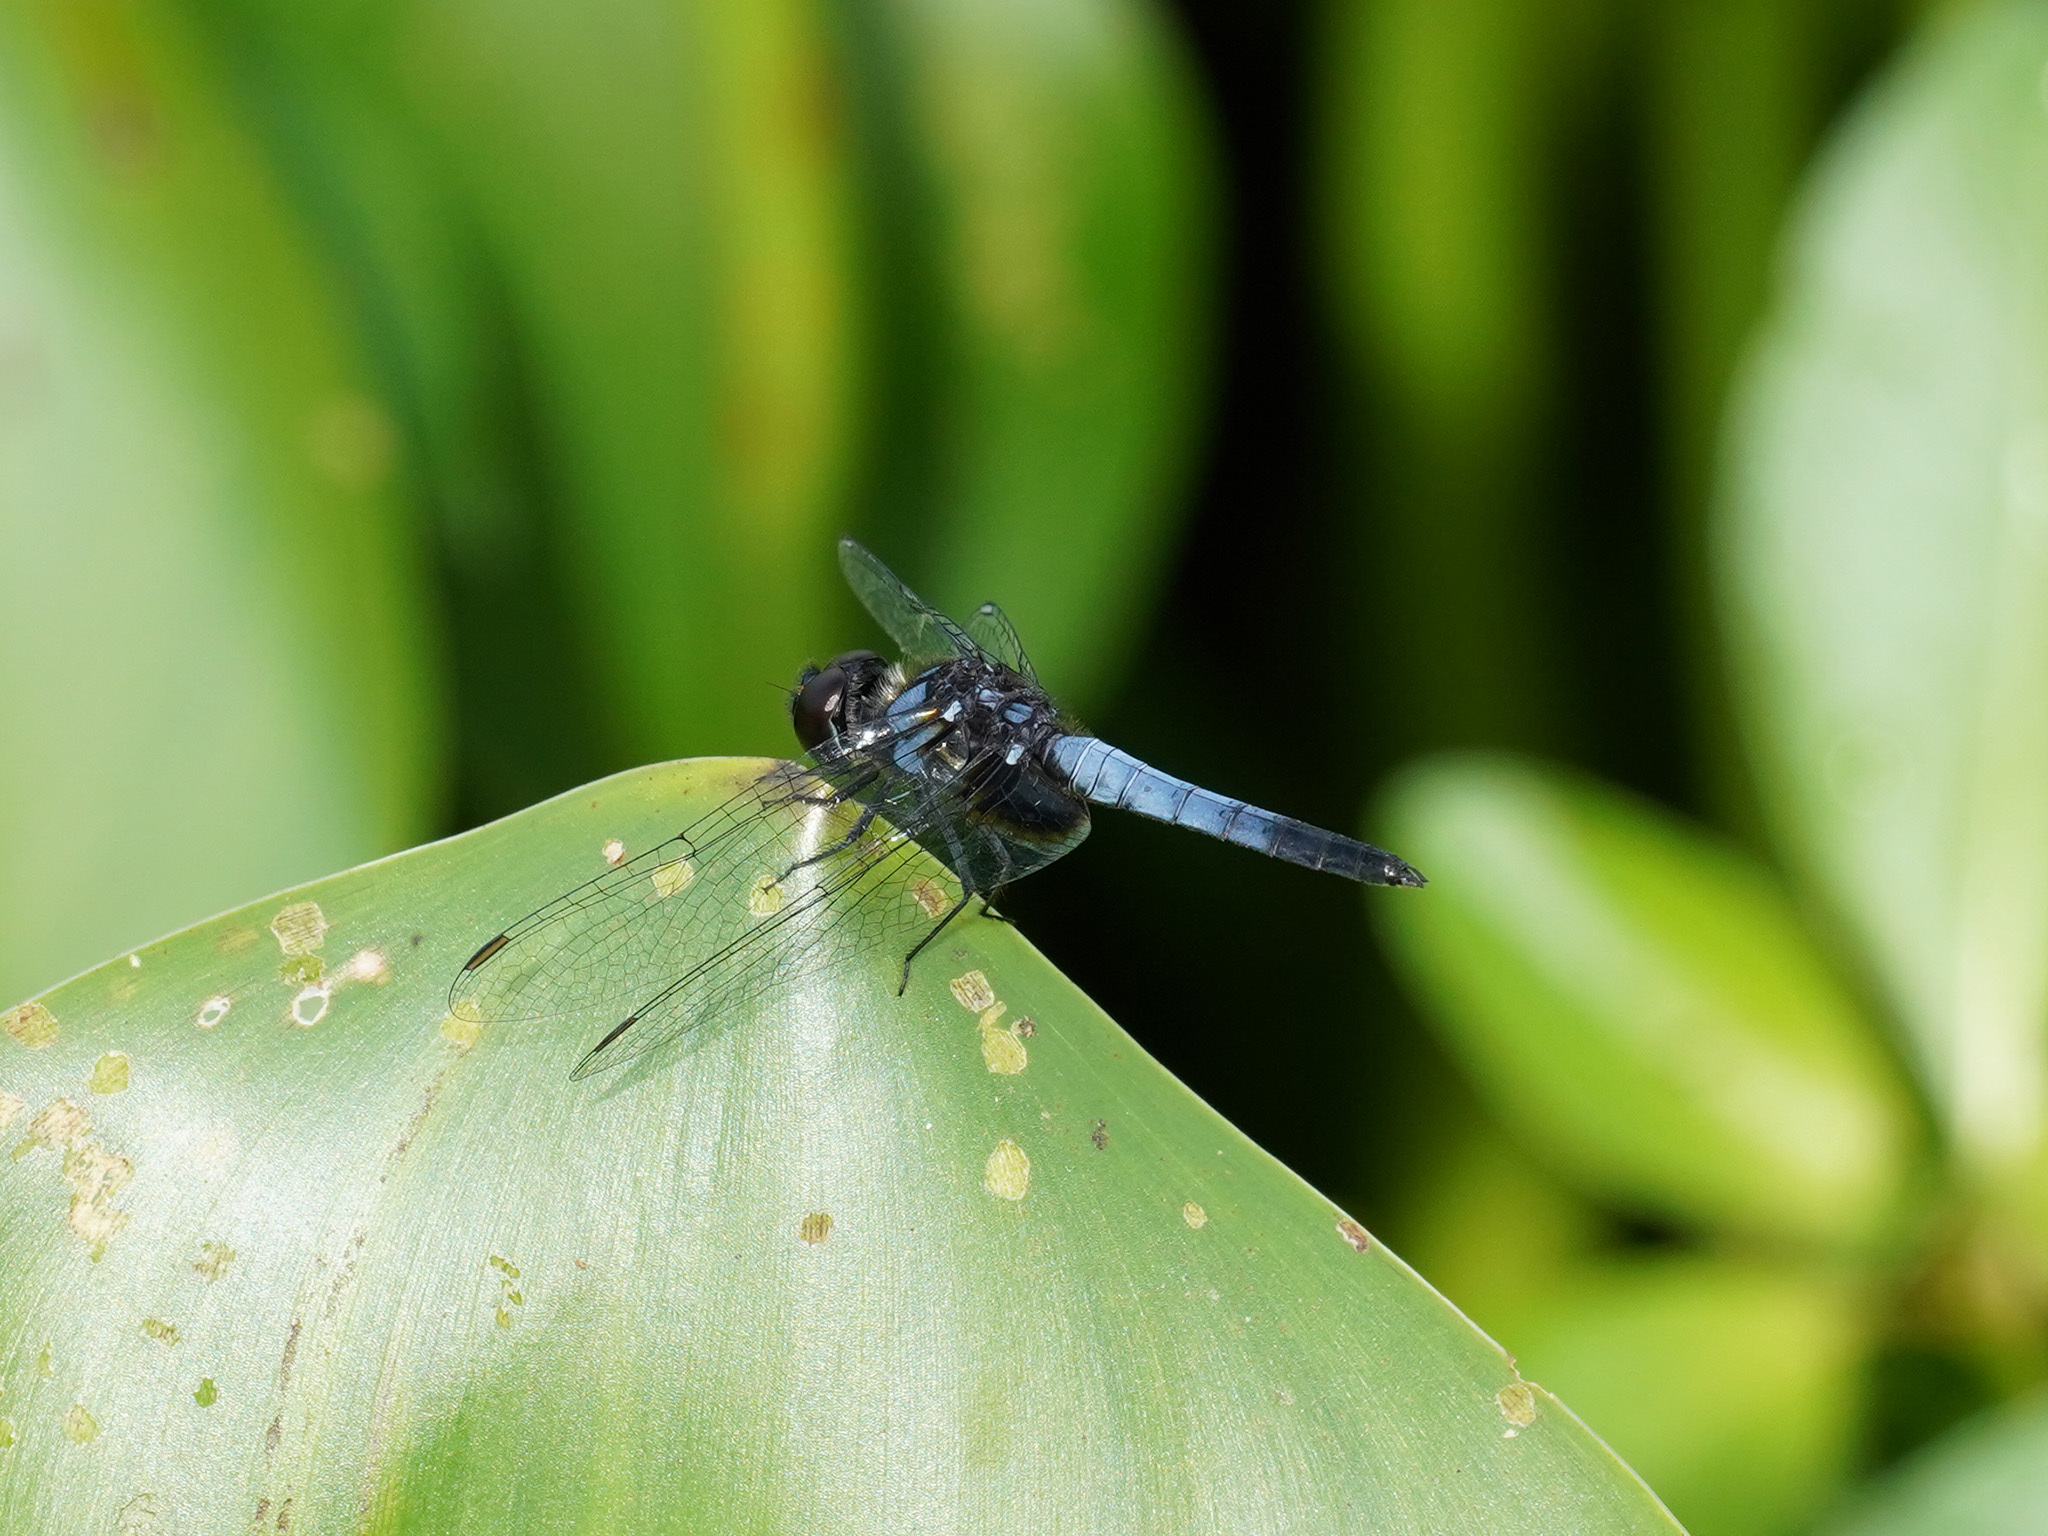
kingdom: Animalia
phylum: Arthropoda
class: Insecta
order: Odonata
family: Libellulidae
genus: Aethriamanta
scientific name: Aethriamanta aethra
